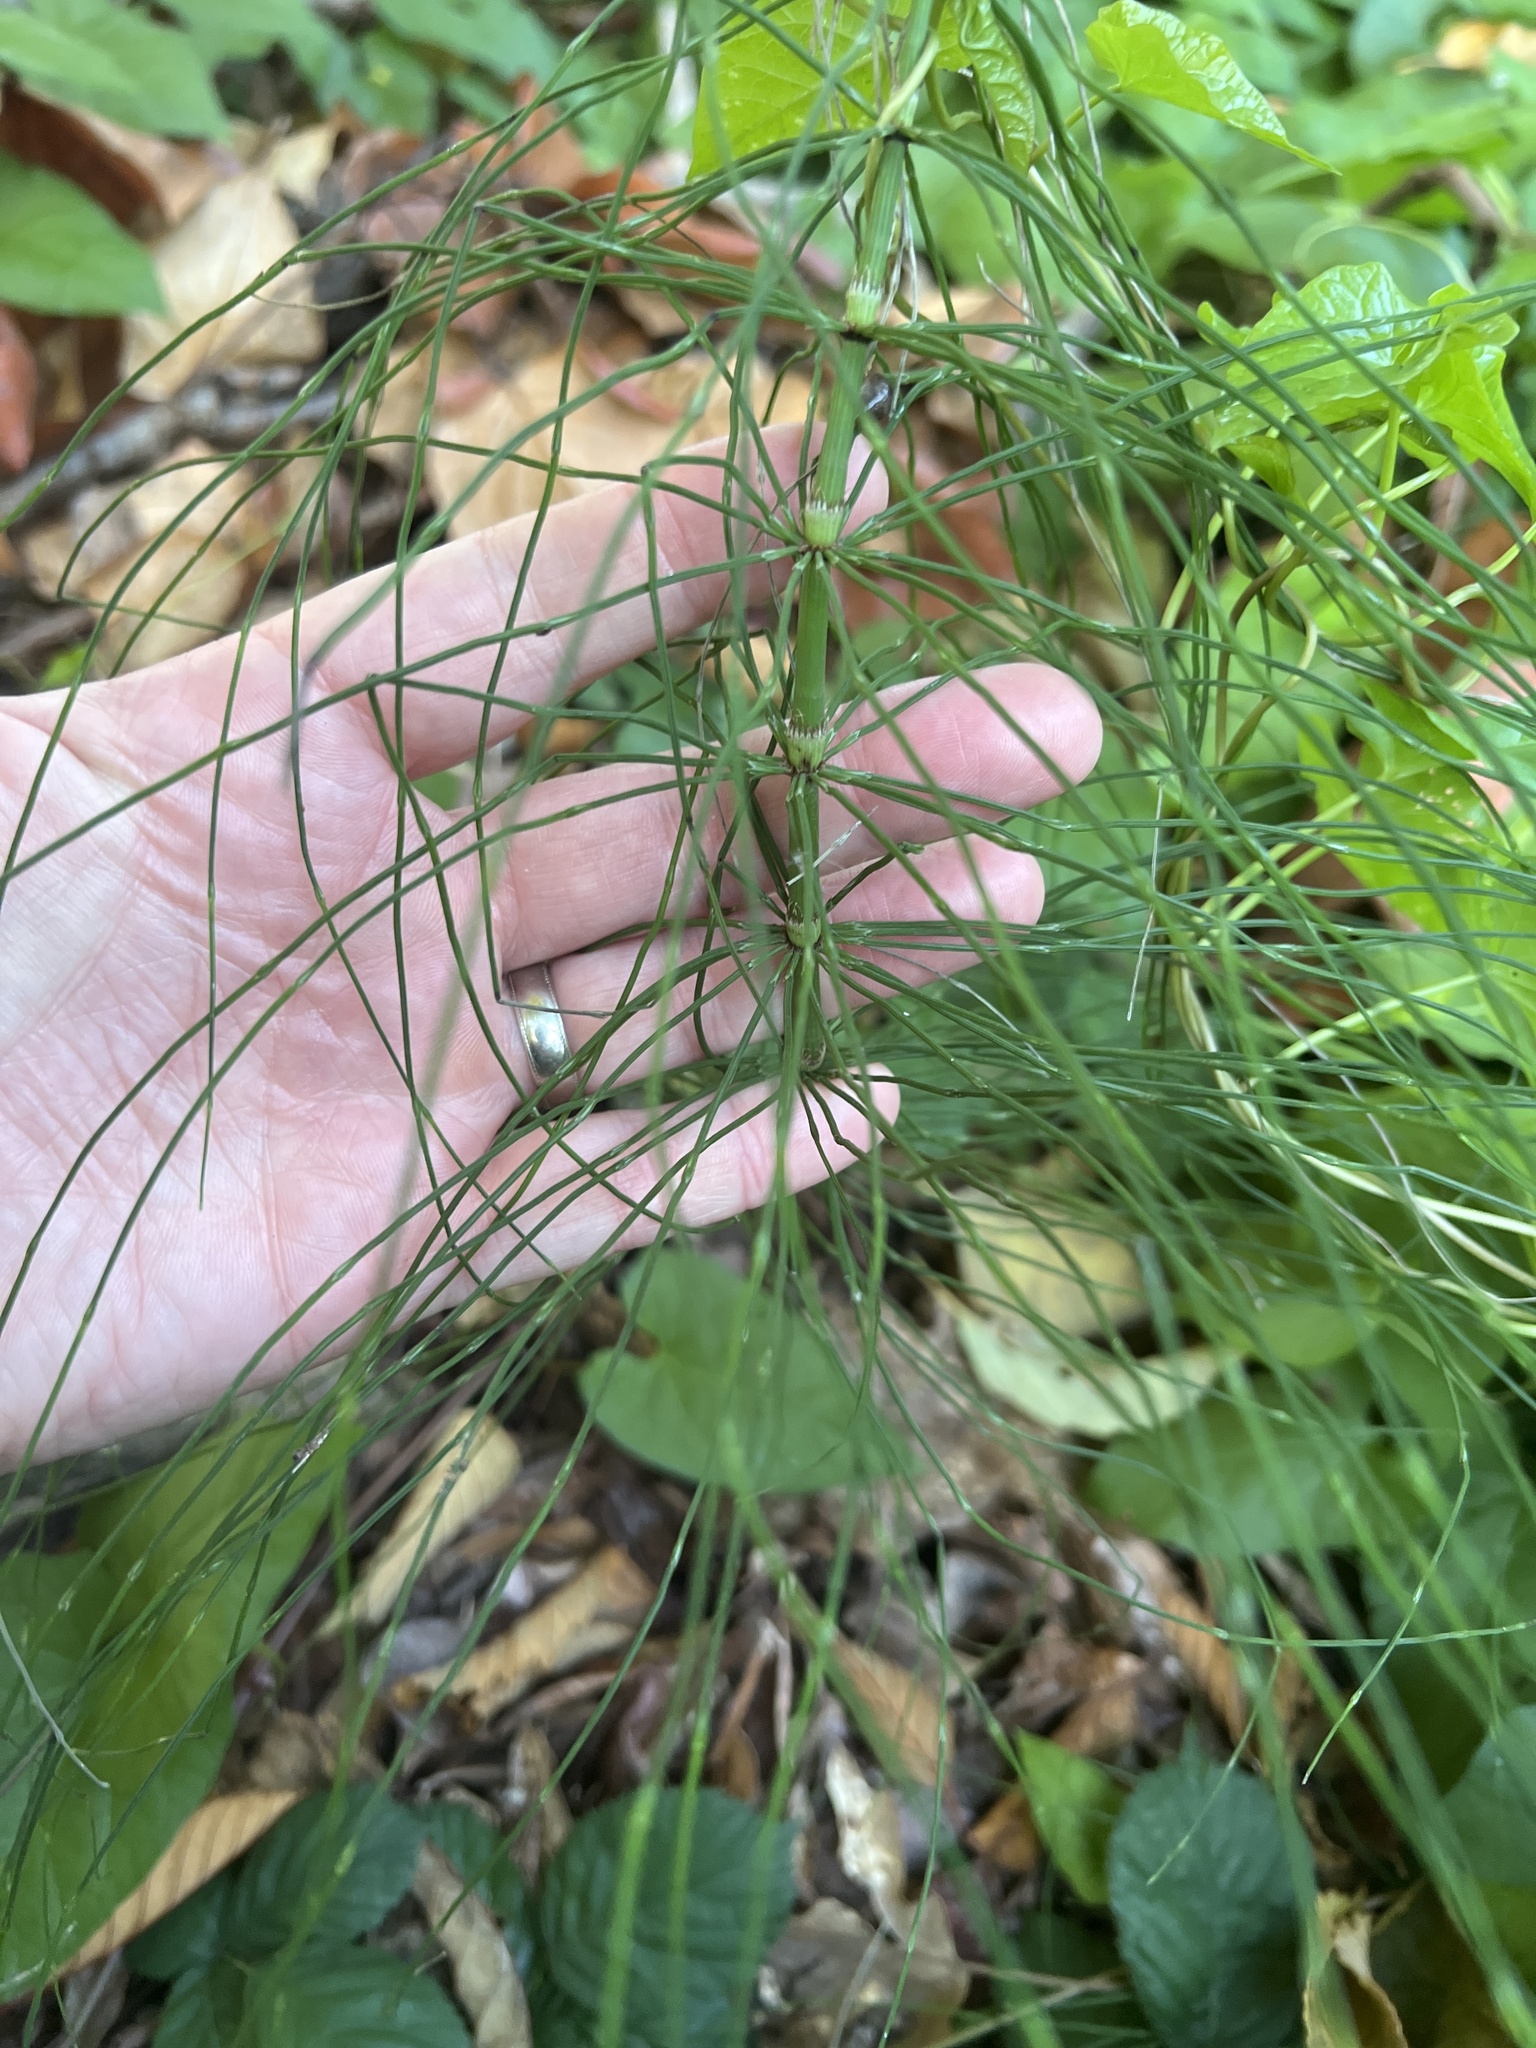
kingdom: Plantae
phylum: Tracheophyta
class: Polypodiopsida
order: Equisetales
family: Equisetaceae
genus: Equisetum
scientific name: Equisetum braunii
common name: Braun's horsetail
